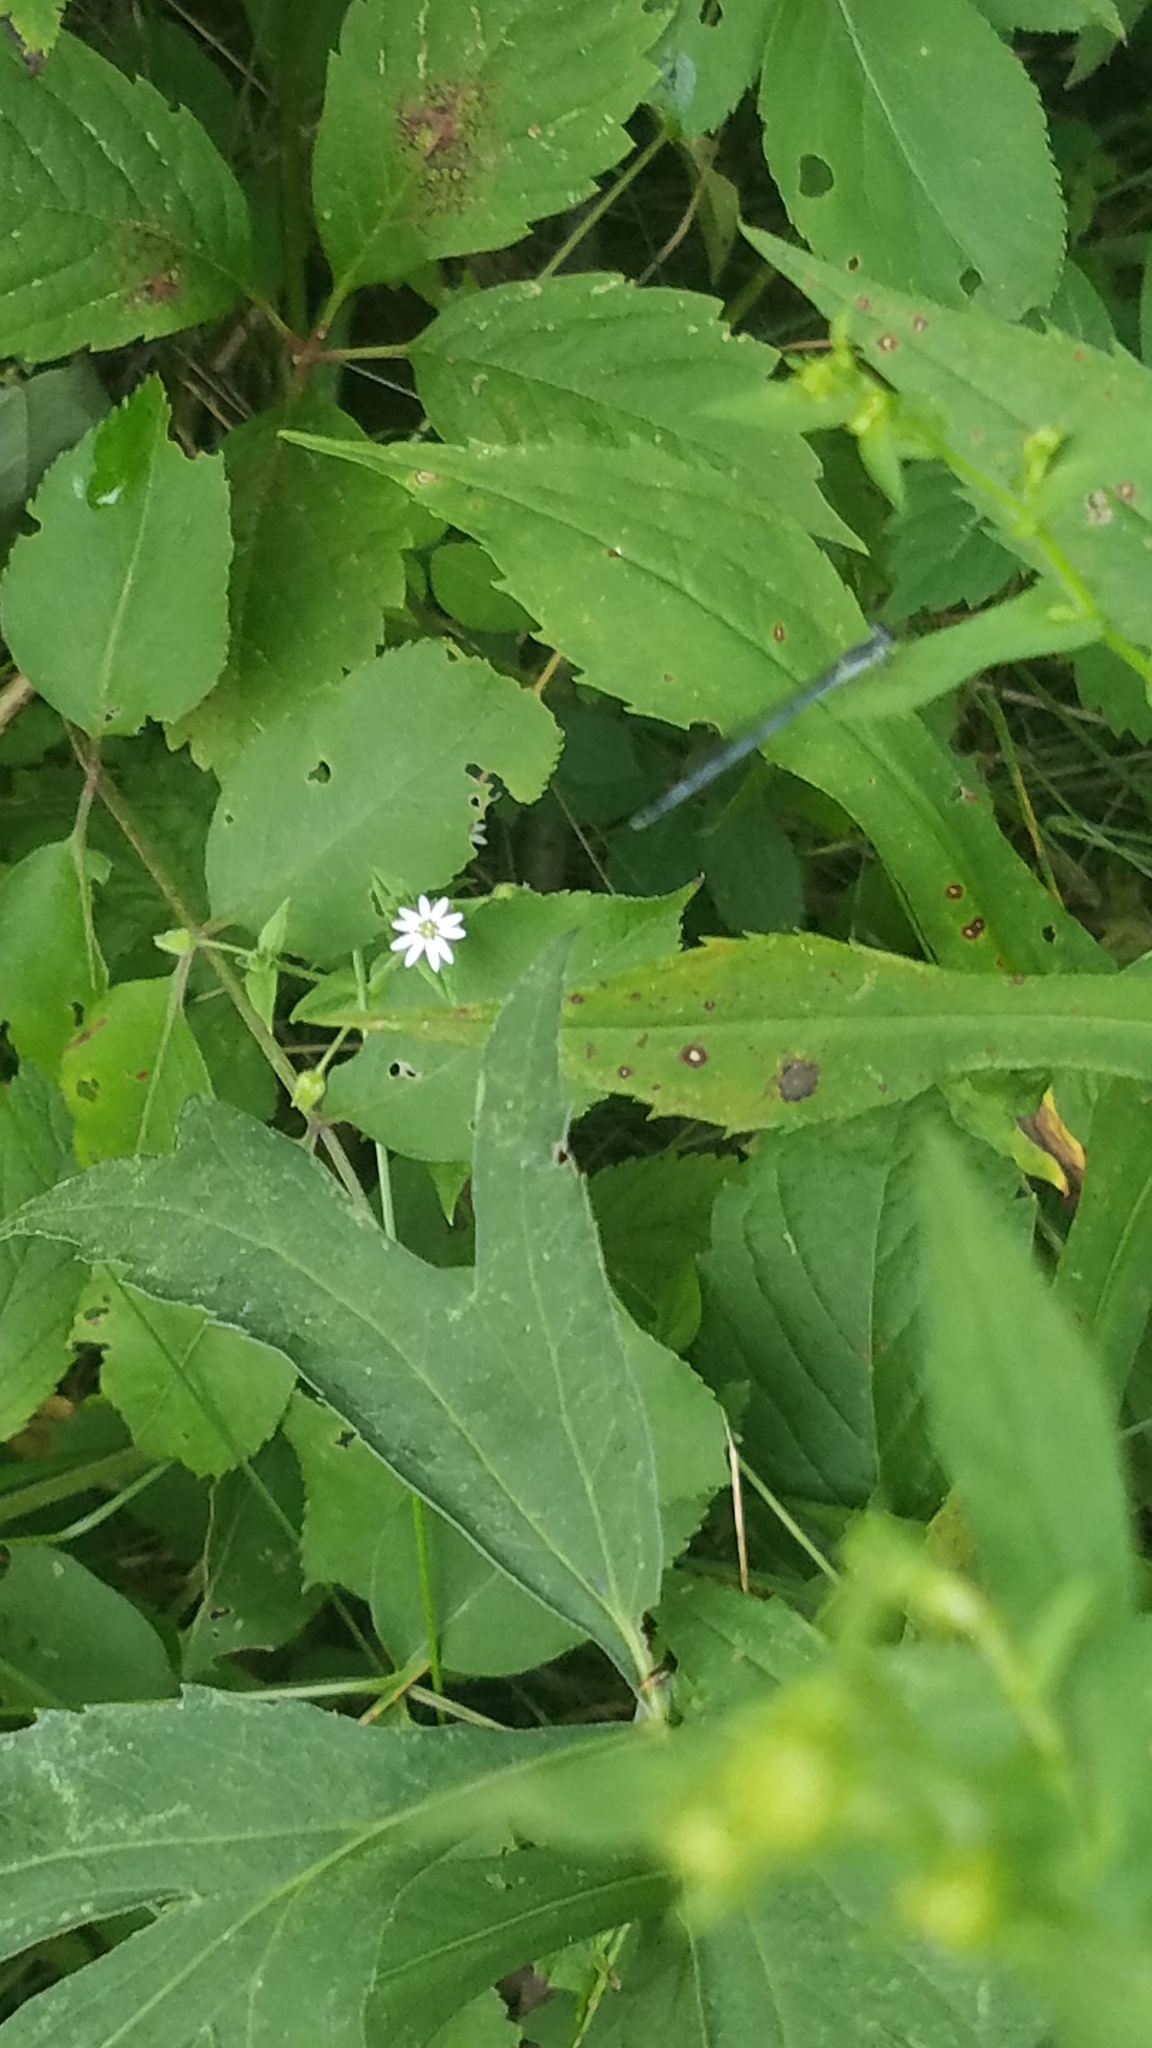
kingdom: Plantae
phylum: Tracheophyta
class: Magnoliopsida
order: Caryophyllales
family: Caryophyllaceae
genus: Stellaria
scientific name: Stellaria aquatica
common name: Water chickweed
